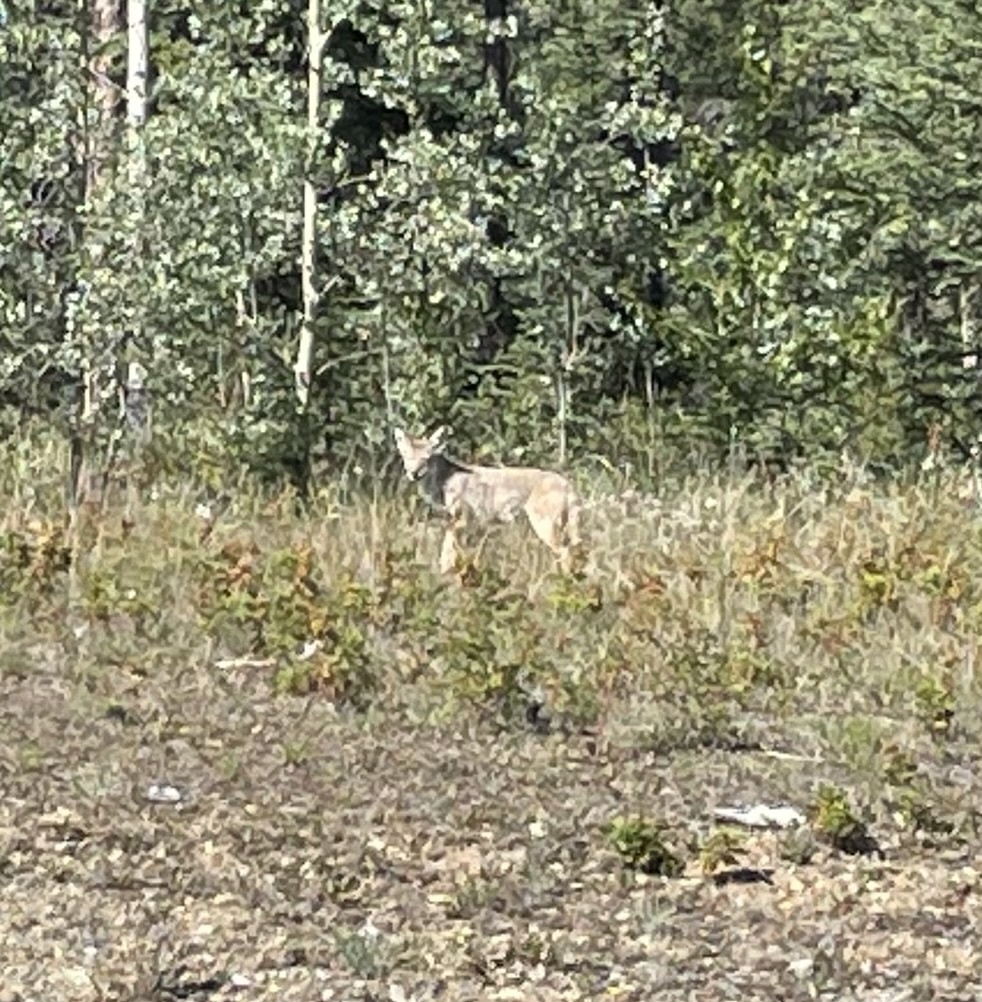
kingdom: Animalia
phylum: Chordata
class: Mammalia
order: Carnivora
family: Canidae
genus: Canis
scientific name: Canis latrans
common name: Coyote
